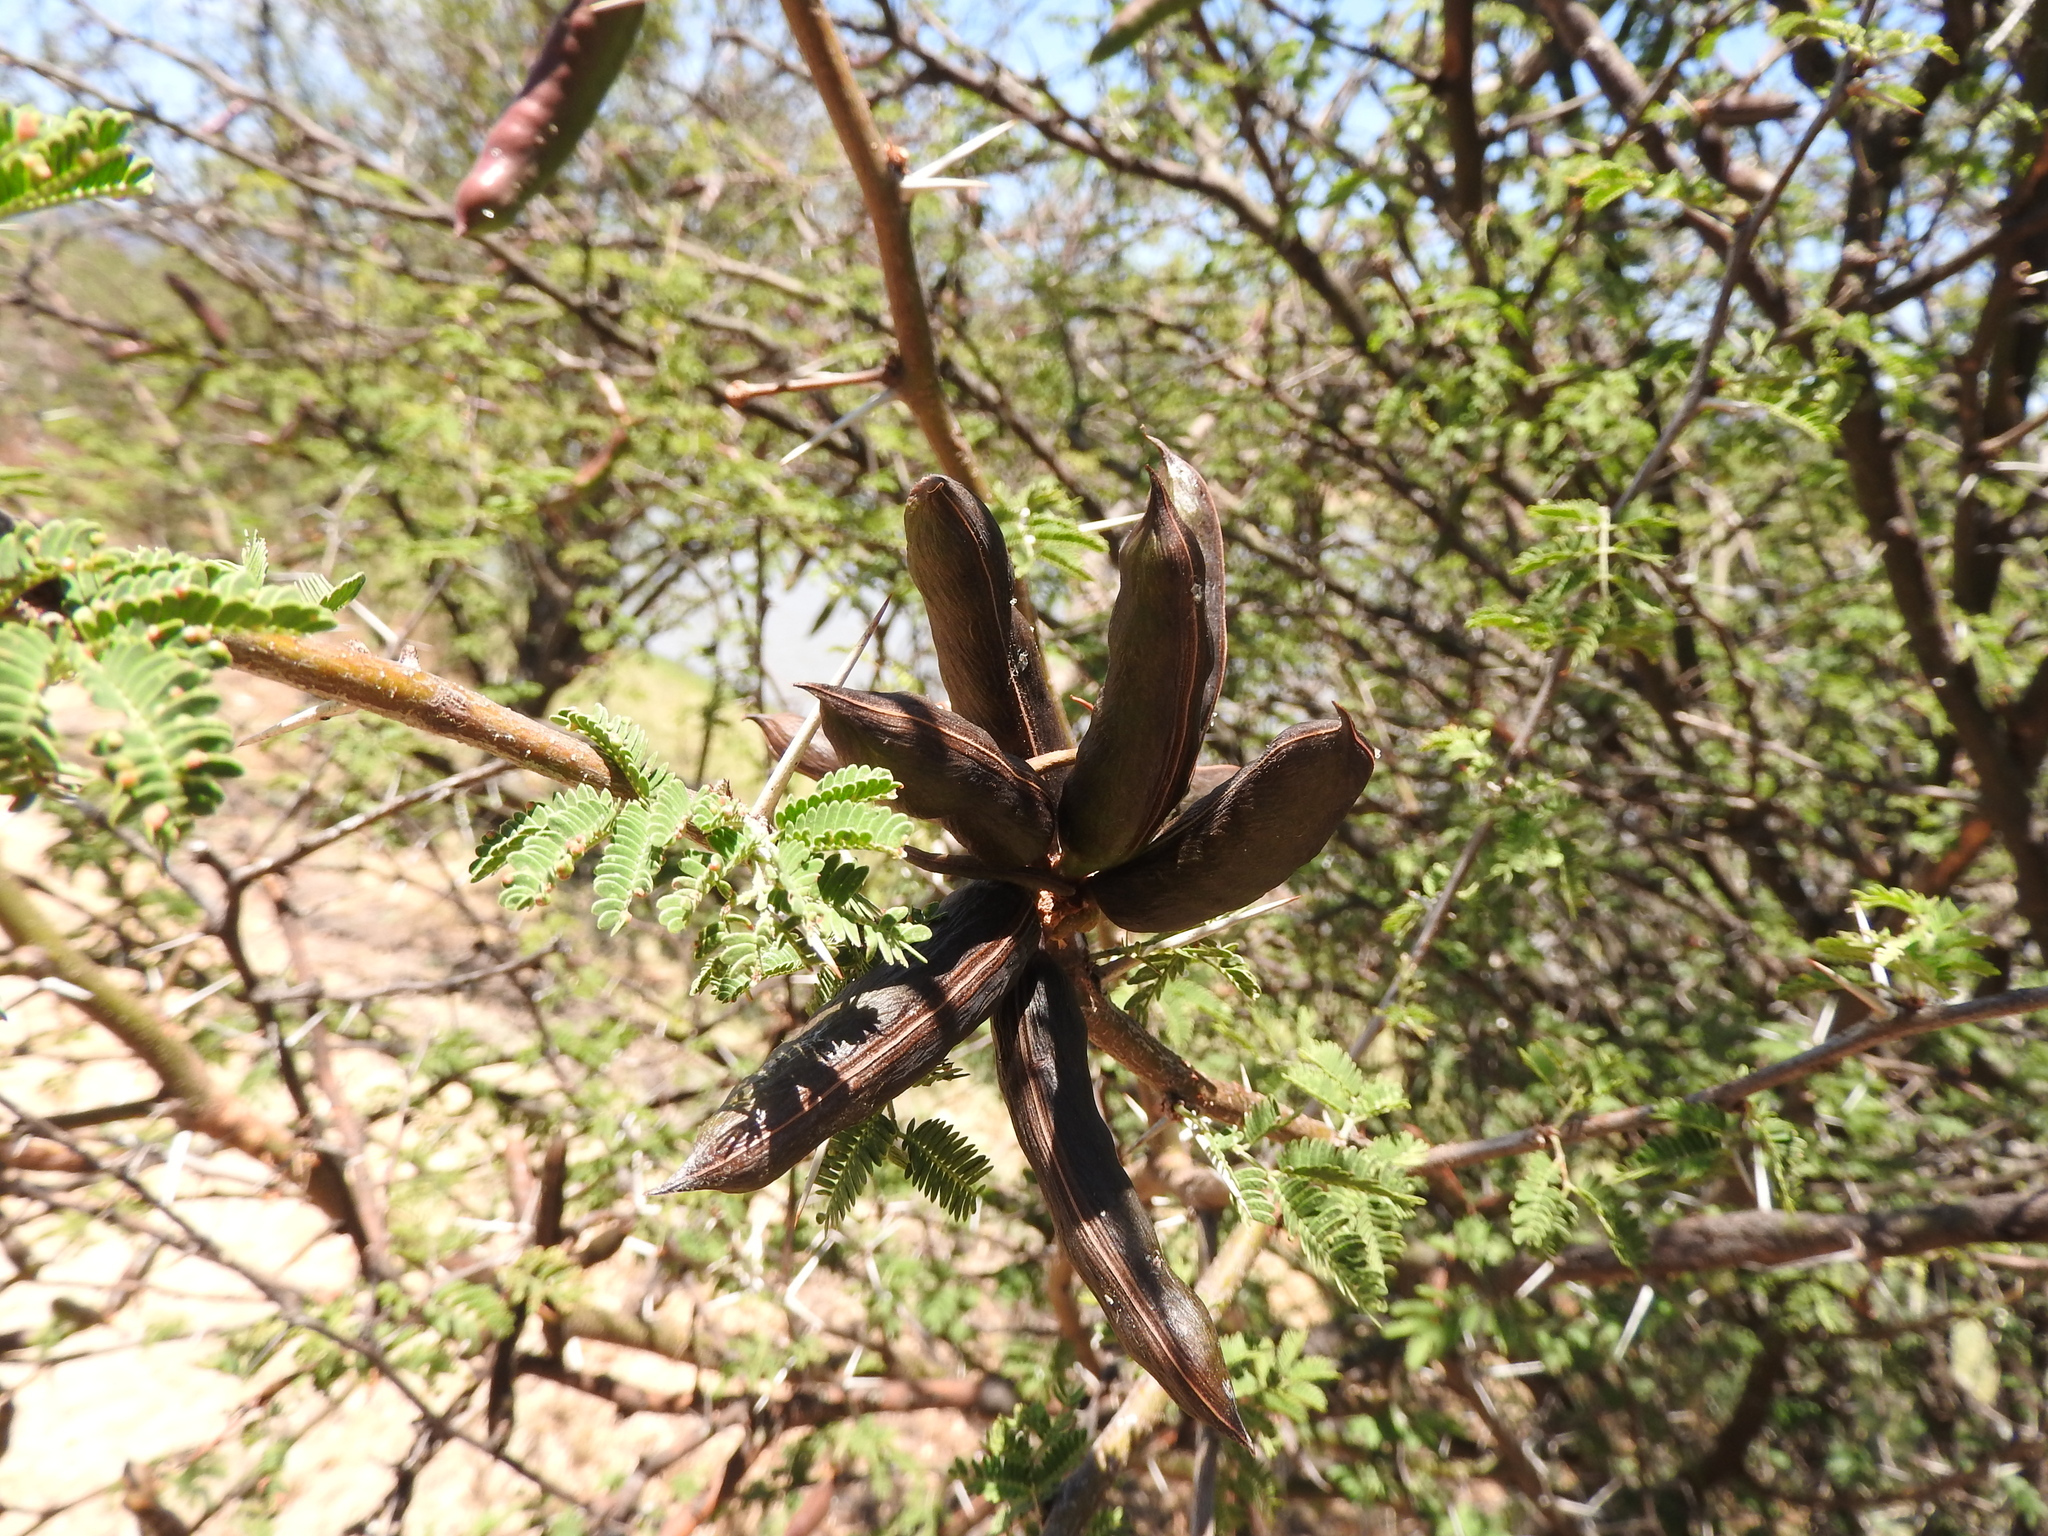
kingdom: Plantae
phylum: Tracheophyta
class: Magnoliopsida
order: Fabales
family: Fabaceae
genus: Vachellia
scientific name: Vachellia farnesiana
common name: Sweet acacia
